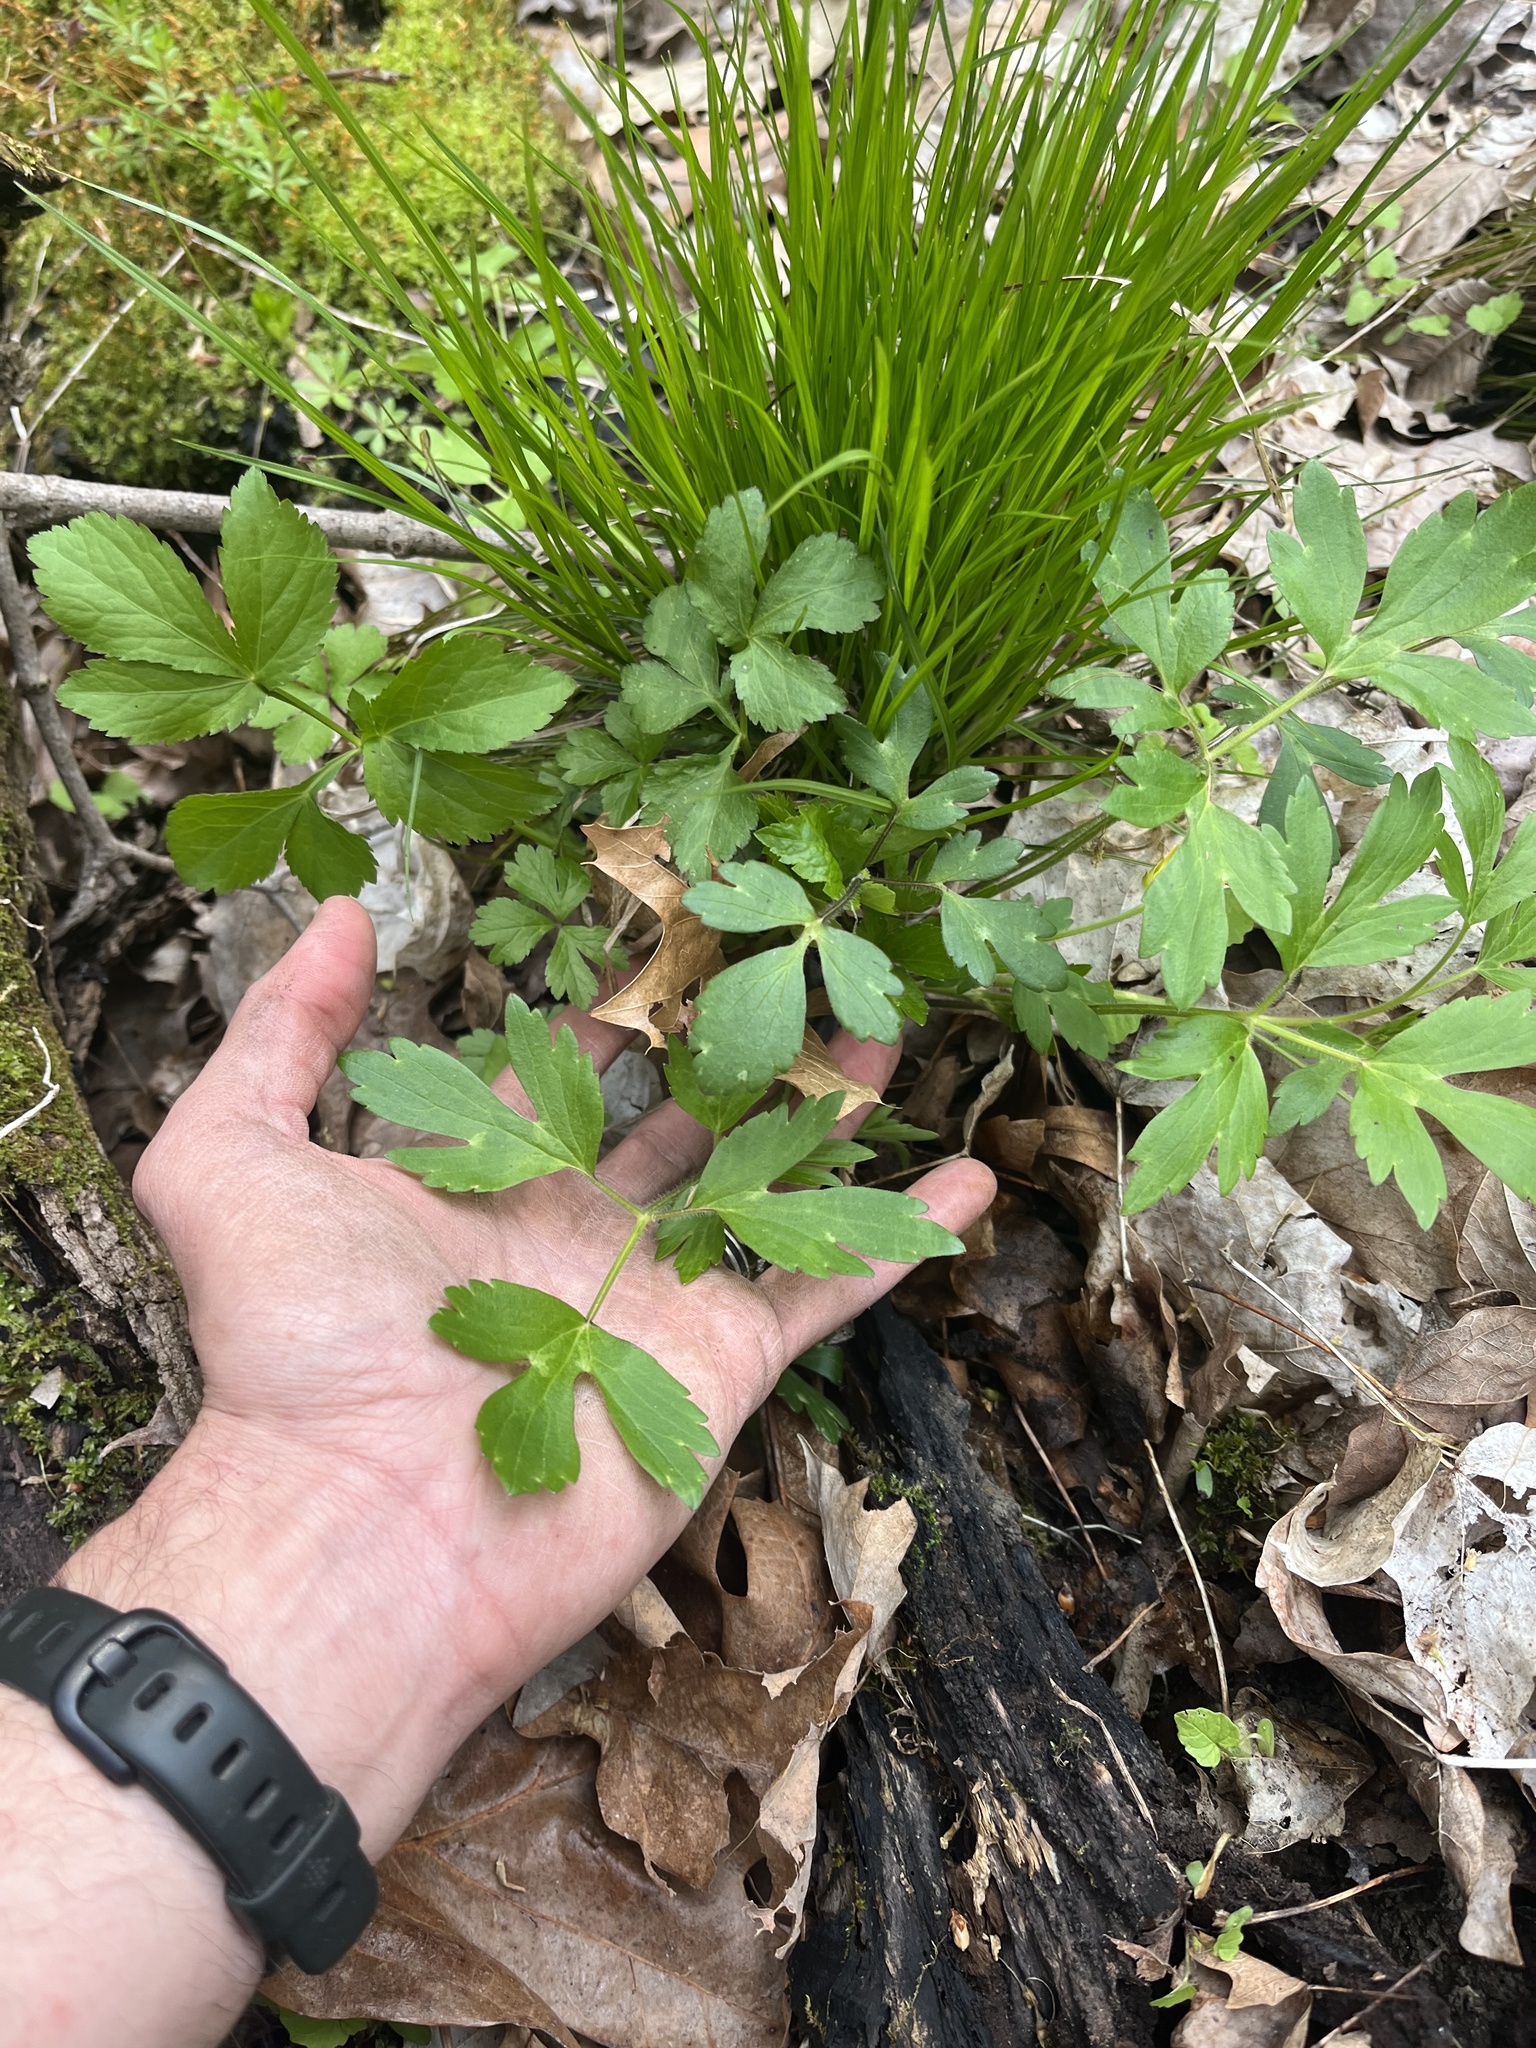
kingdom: Plantae
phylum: Tracheophyta
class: Magnoliopsida
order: Ranunculales
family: Ranunculaceae
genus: Ranunculus
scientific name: Ranunculus hispidus
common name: Bristly buttercup
